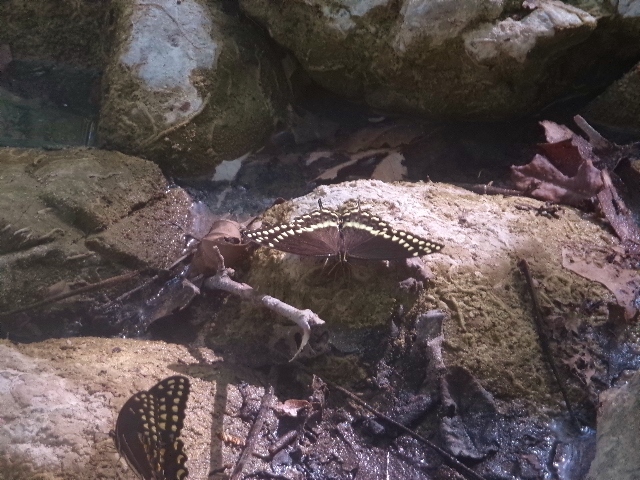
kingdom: Animalia
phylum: Arthropoda
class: Insecta
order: Lepidoptera
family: Papilionidae
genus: Papilio
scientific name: Papilio palamedes
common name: Palamedes swallowtail
